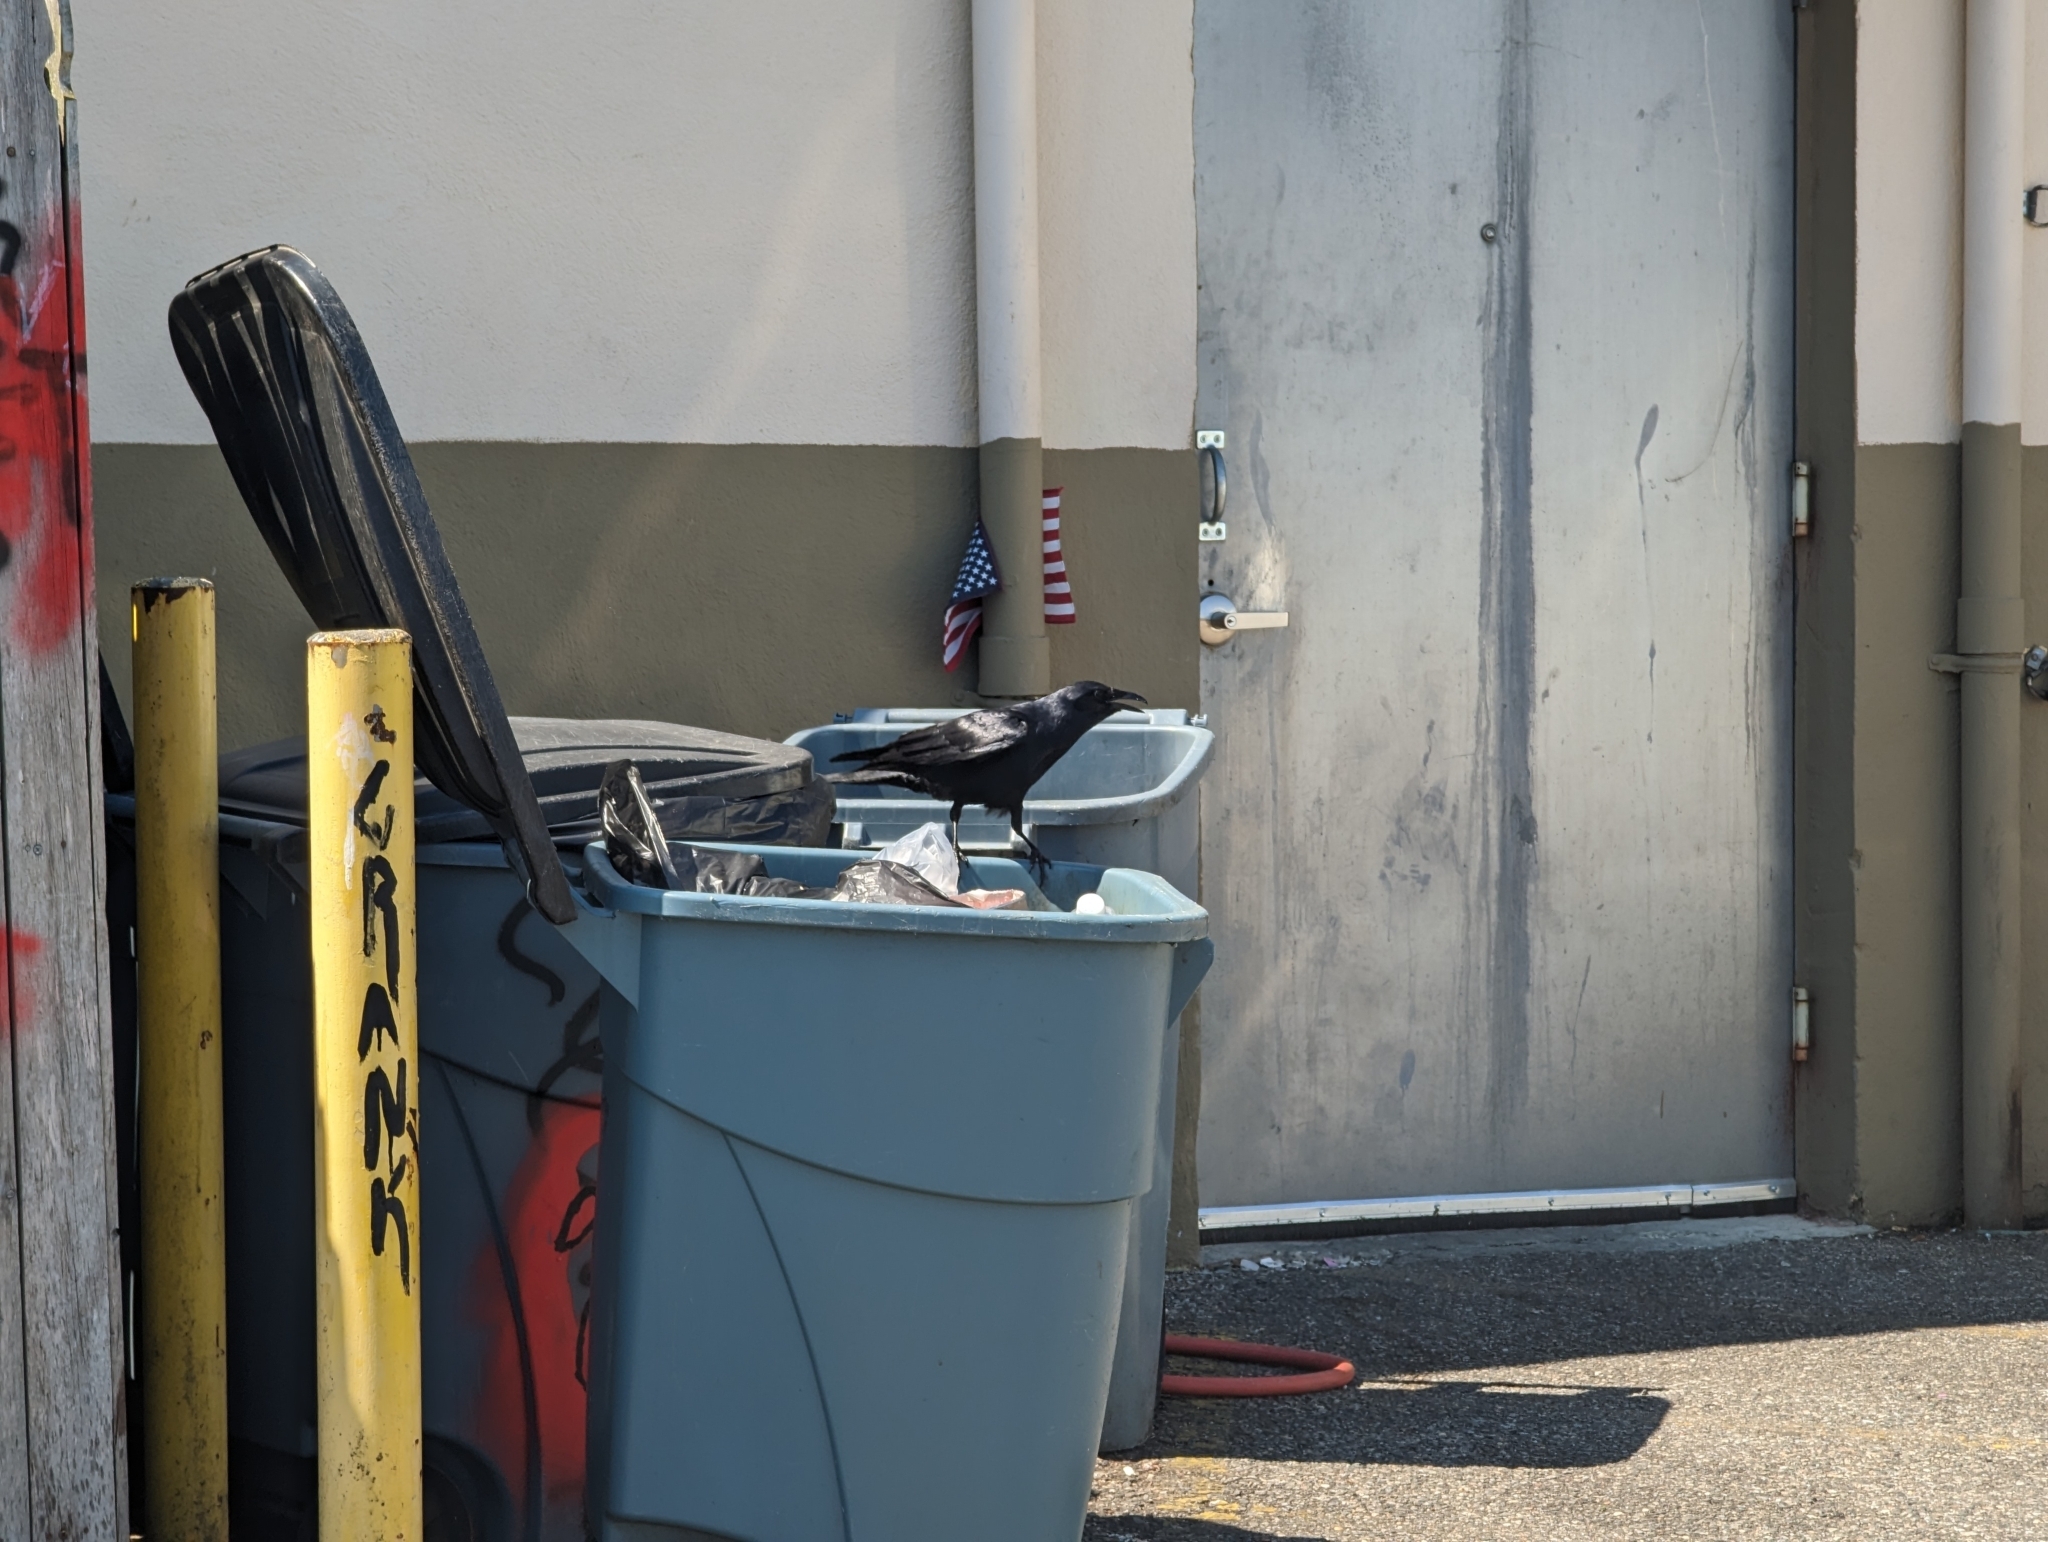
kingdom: Animalia
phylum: Chordata
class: Aves
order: Passeriformes
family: Corvidae
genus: Corvus
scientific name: Corvus brachyrhynchos
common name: American crow
